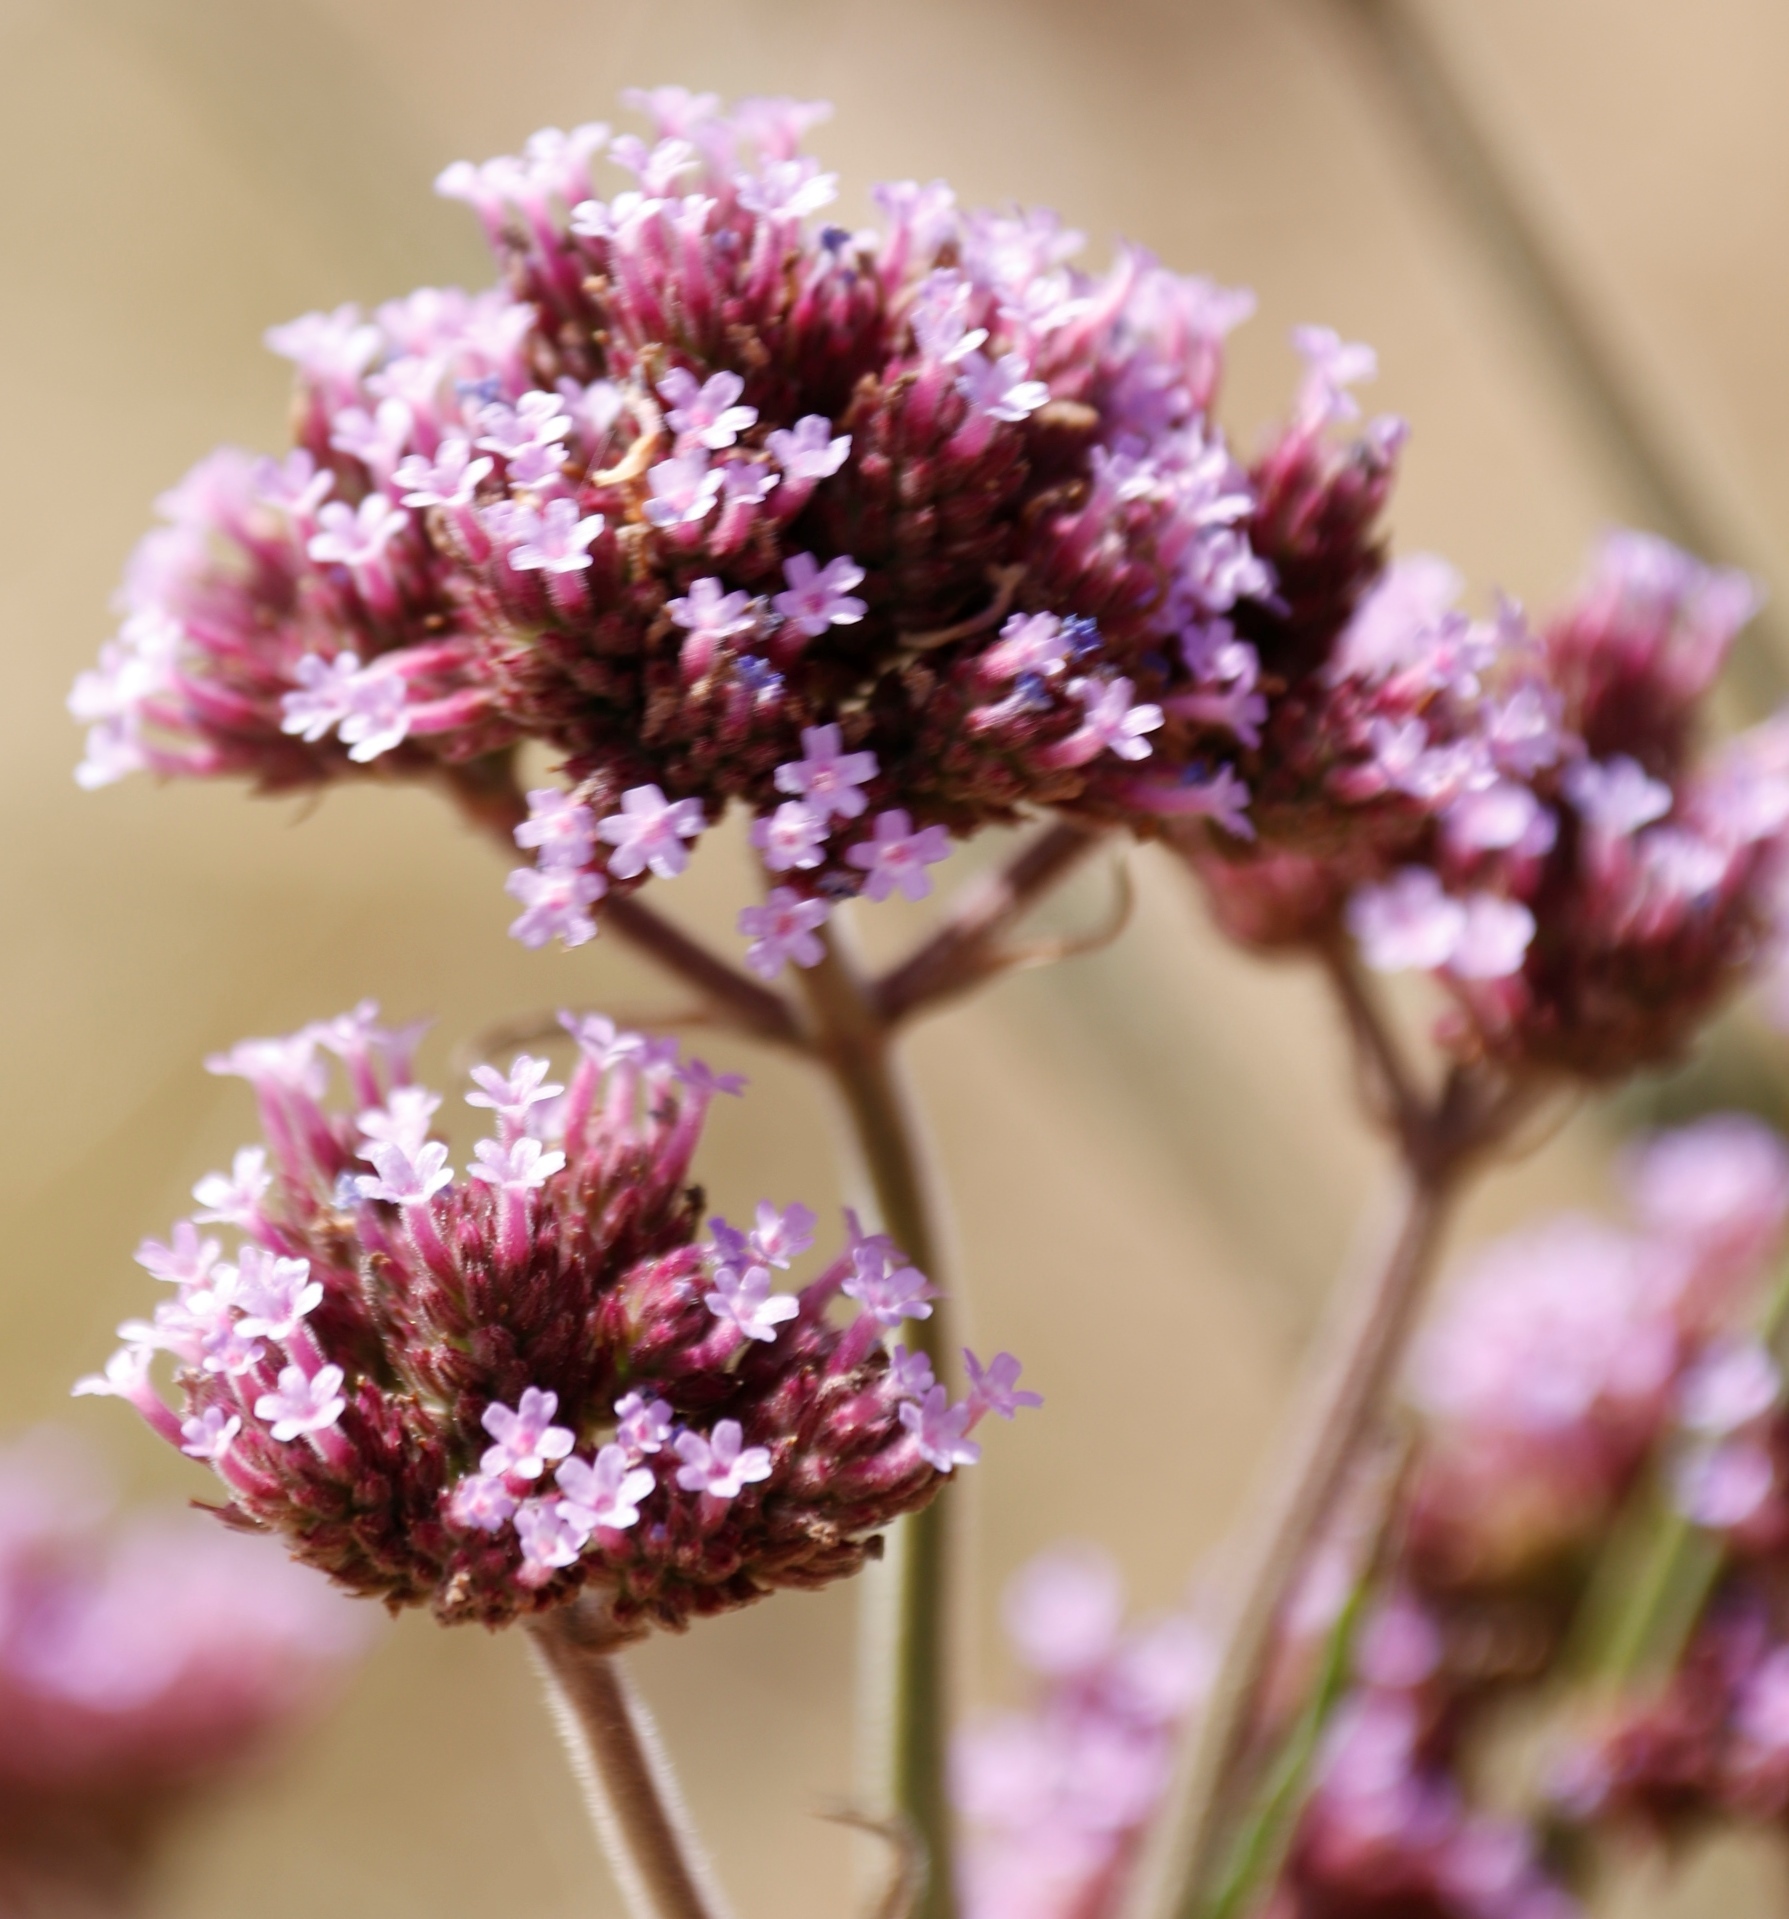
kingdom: Plantae
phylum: Tracheophyta
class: Magnoliopsida
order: Lamiales
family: Verbenaceae
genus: Verbena
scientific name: Verbena bonariensis
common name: Purpletop vervain
